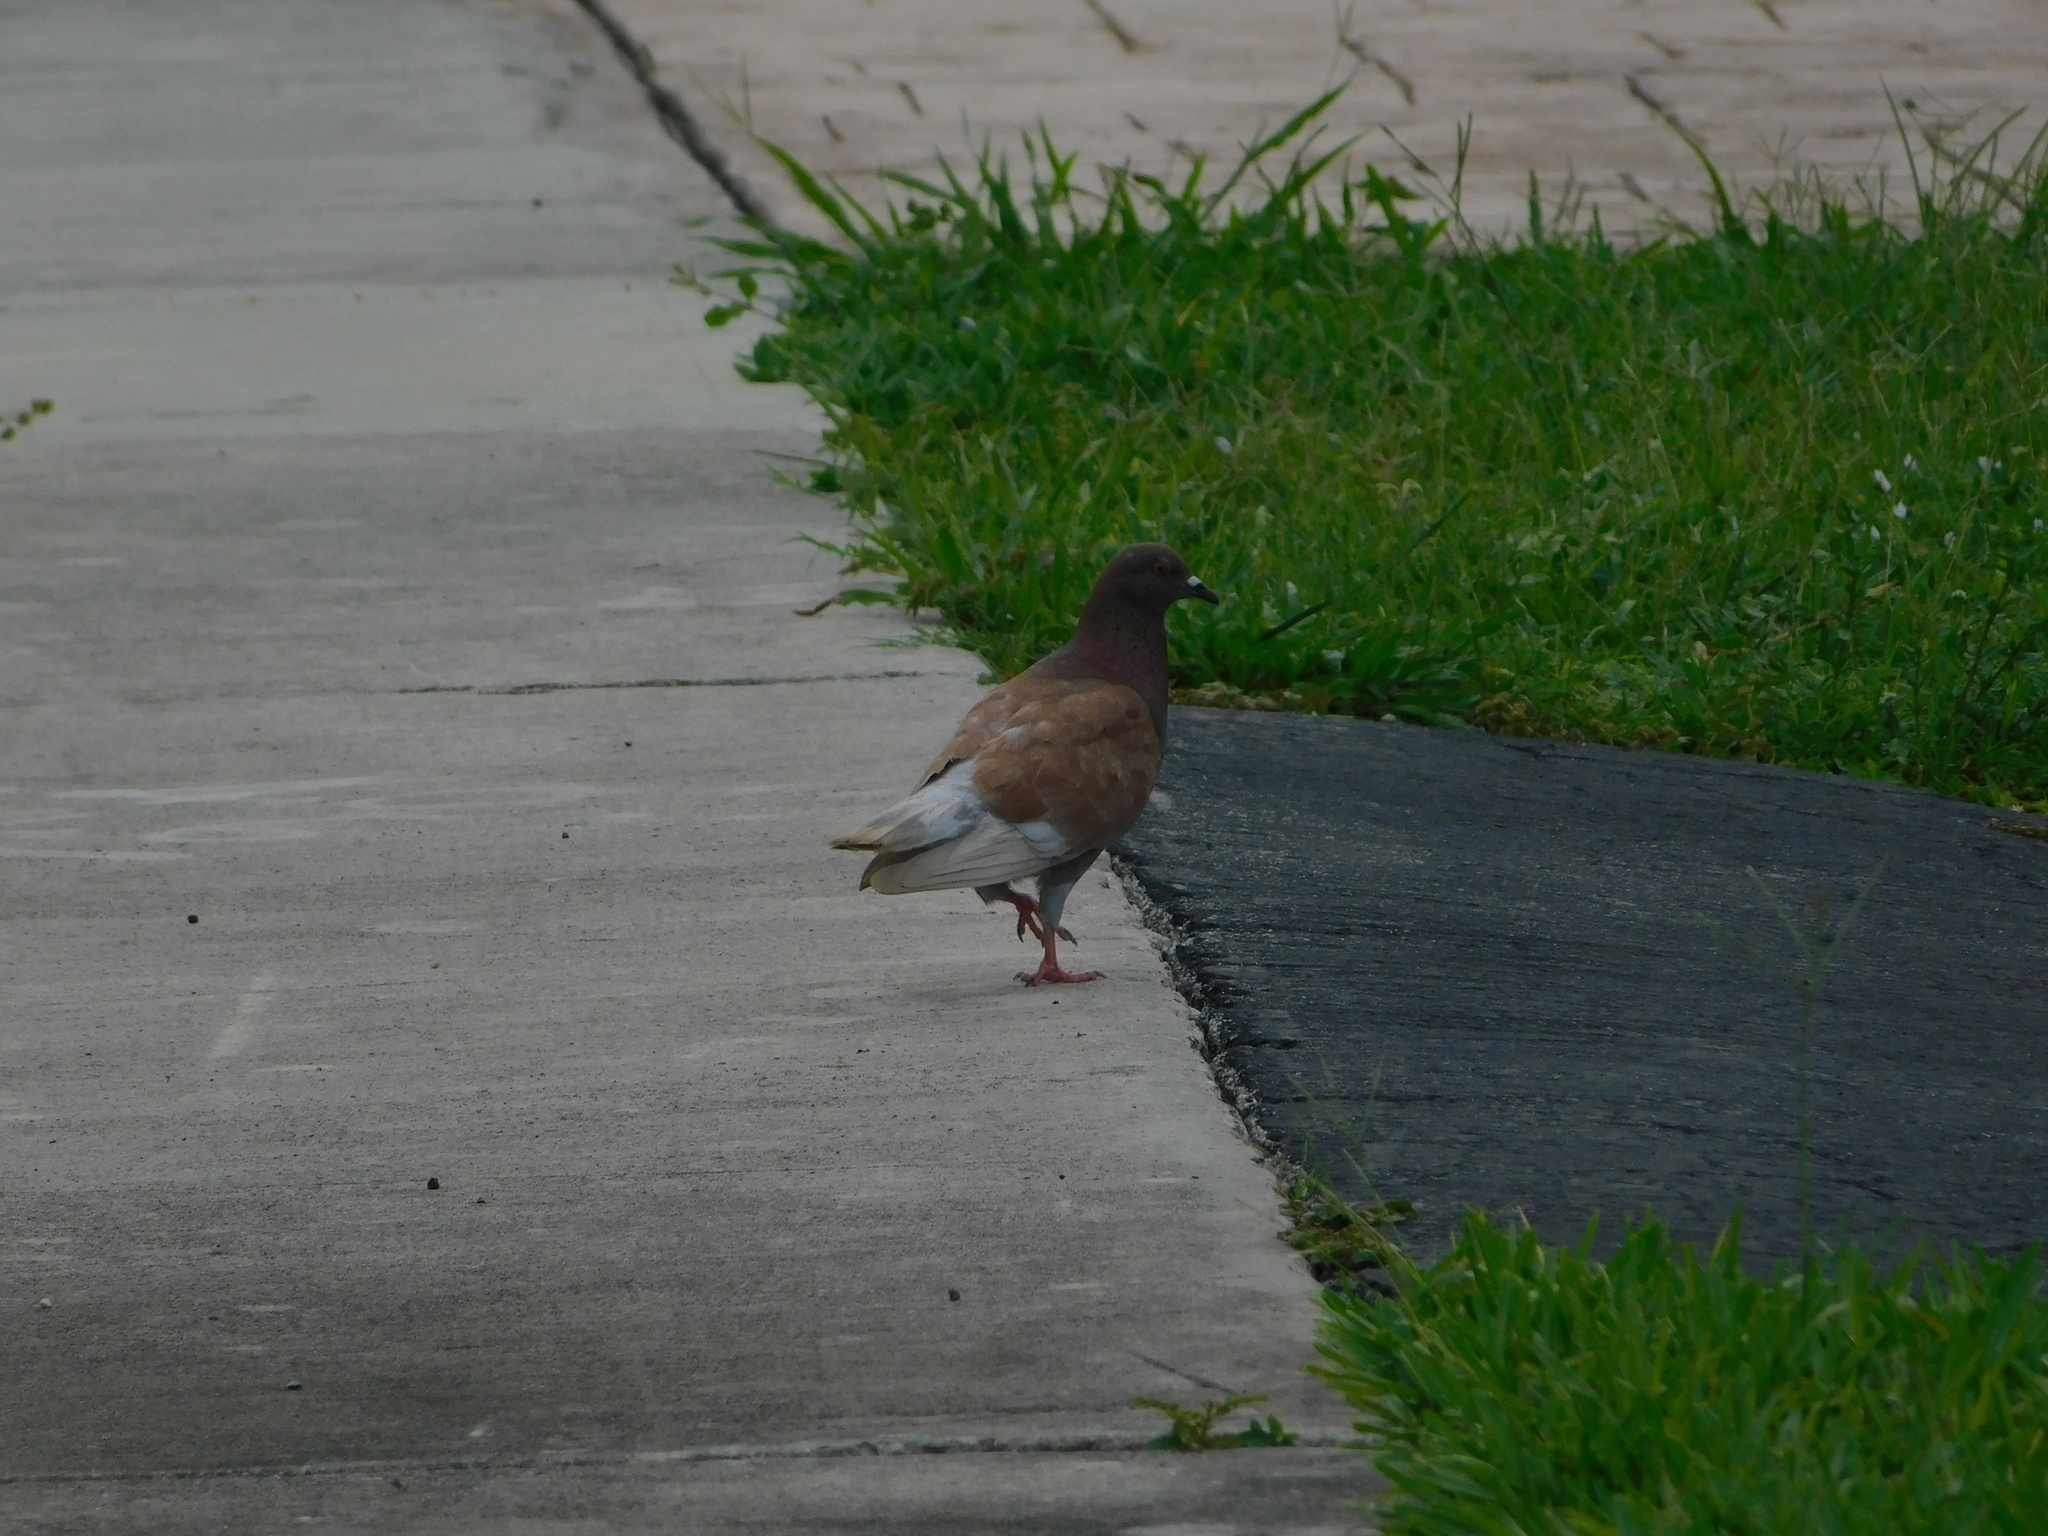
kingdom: Animalia
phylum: Chordata
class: Aves
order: Columbiformes
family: Columbidae
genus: Columba
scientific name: Columba livia
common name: Rock pigeon
